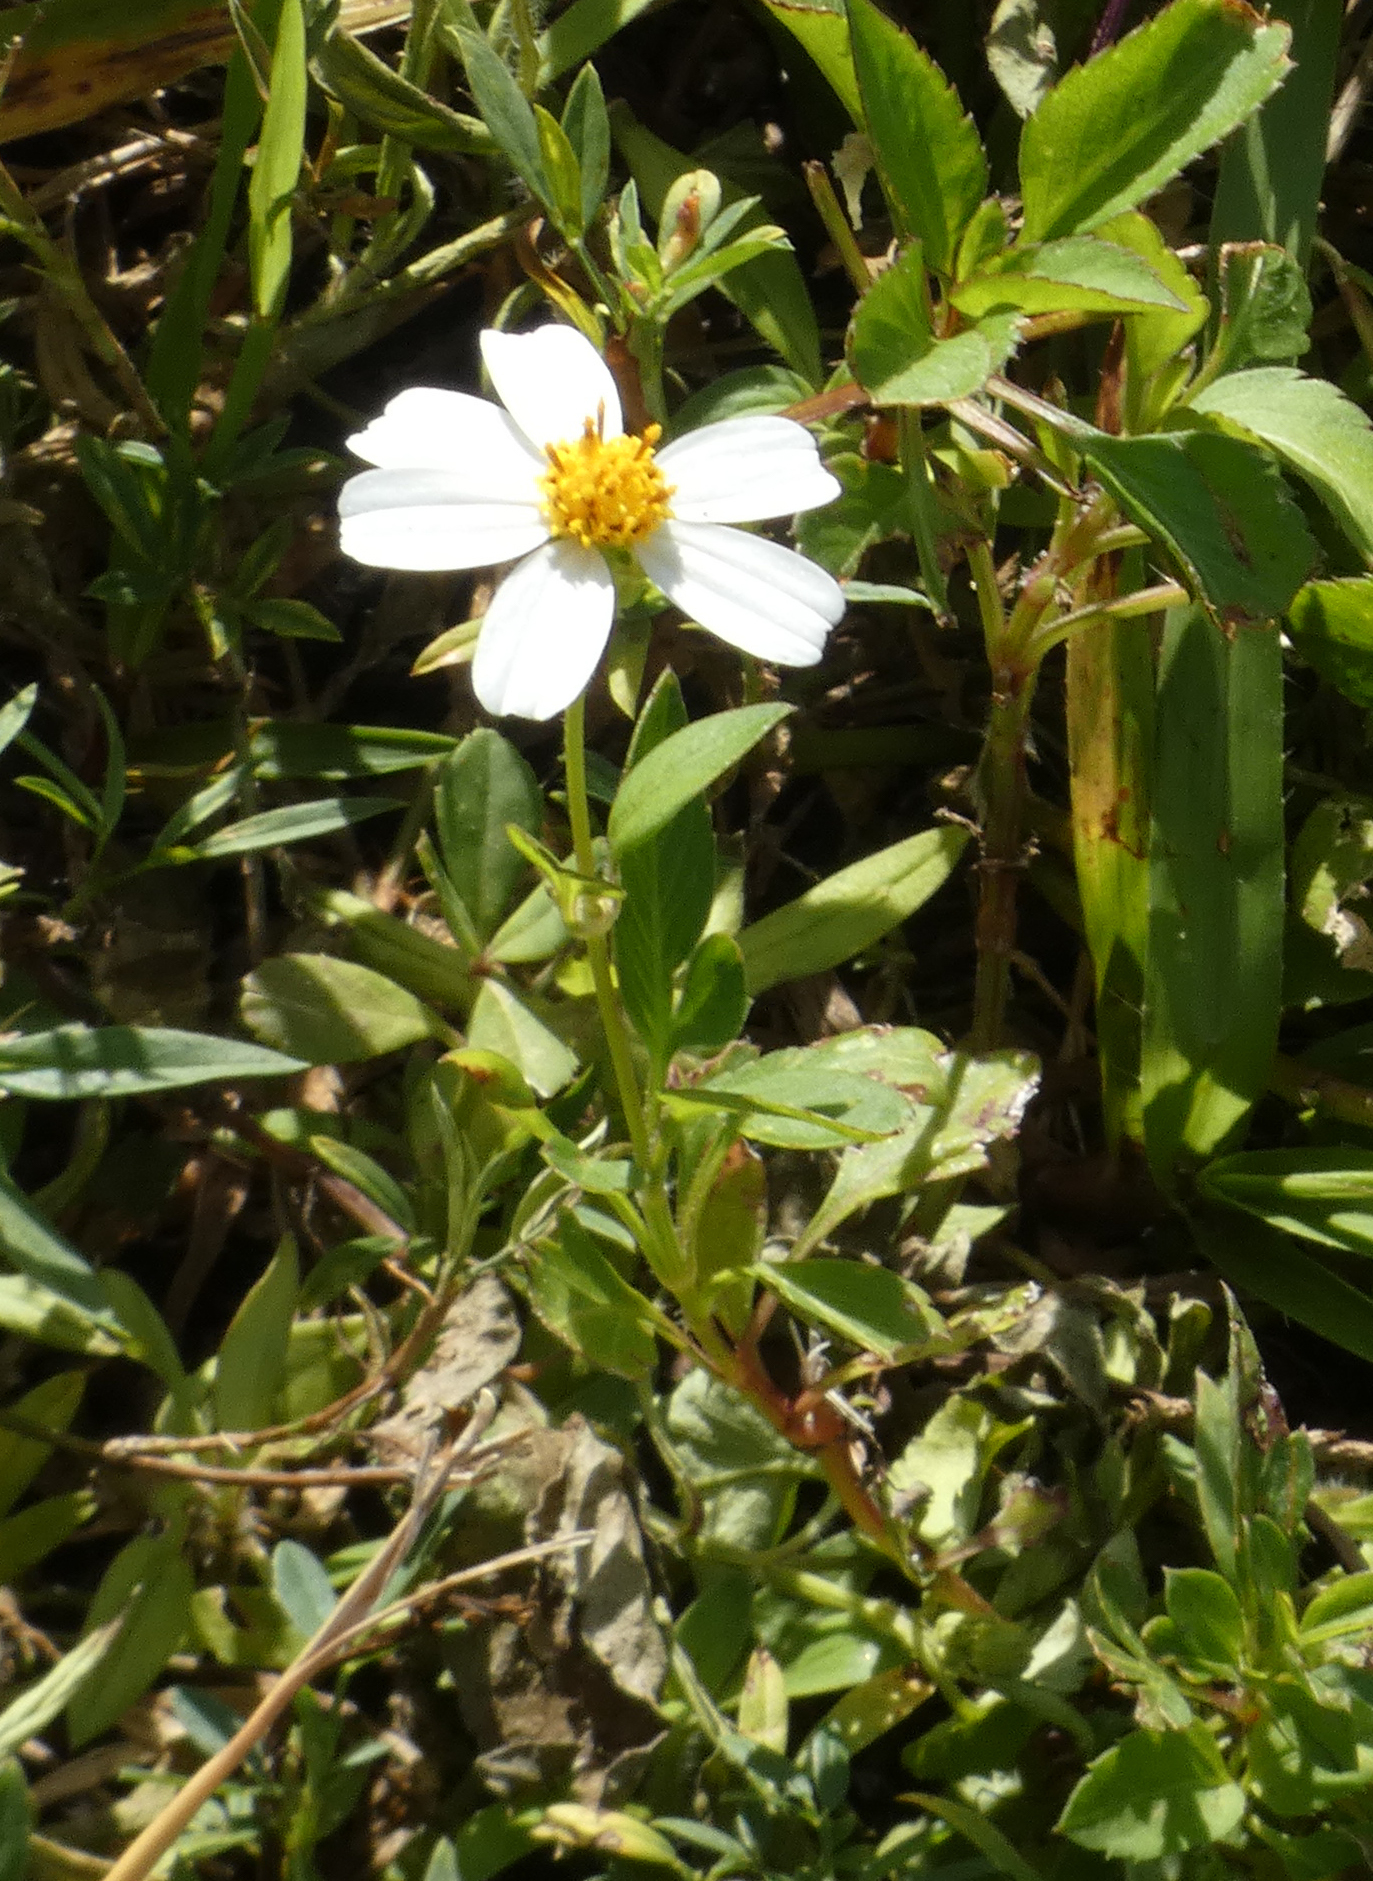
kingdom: Plantae
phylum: Tracheophyta
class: Magnoliopsida
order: Asterales
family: Asteraceae
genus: Bidens
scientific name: Bidens alba
